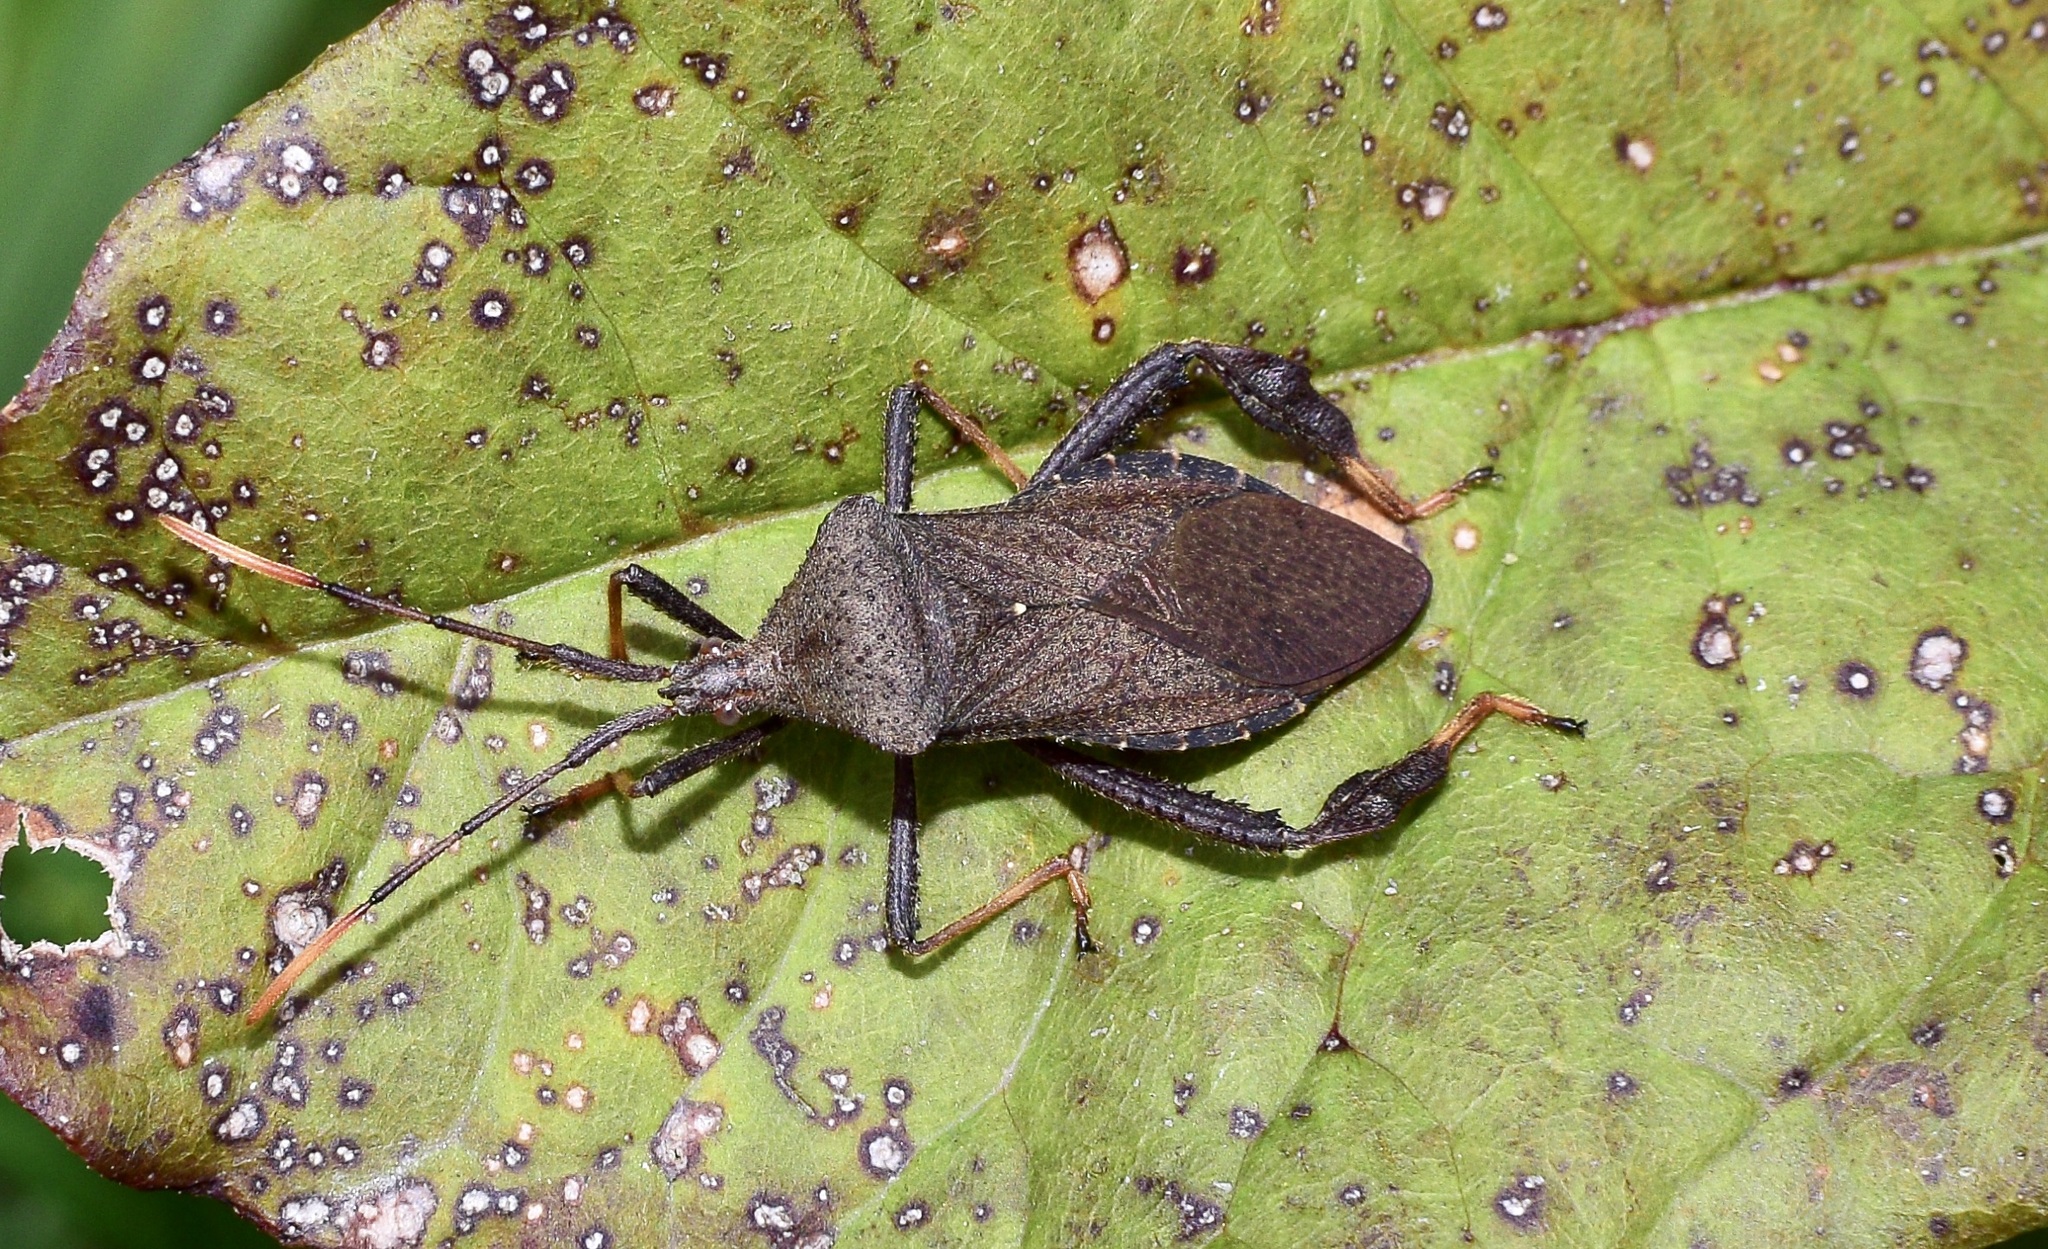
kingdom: Animalia
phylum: Arthropoda
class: Insecta
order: Hemiptera
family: Coreidae
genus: Acanthocephala
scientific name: Acanthocephala terminalis
